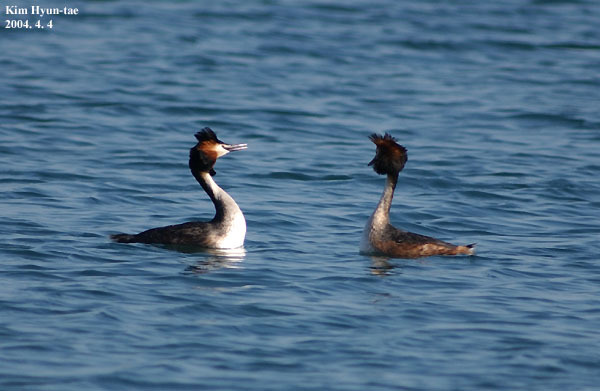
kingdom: Animalia
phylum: Chordata
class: Aves
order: Podicipediformes
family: Podicipedidae
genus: Podiceps
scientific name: Podiceps cristatus
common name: Great crested grebe
